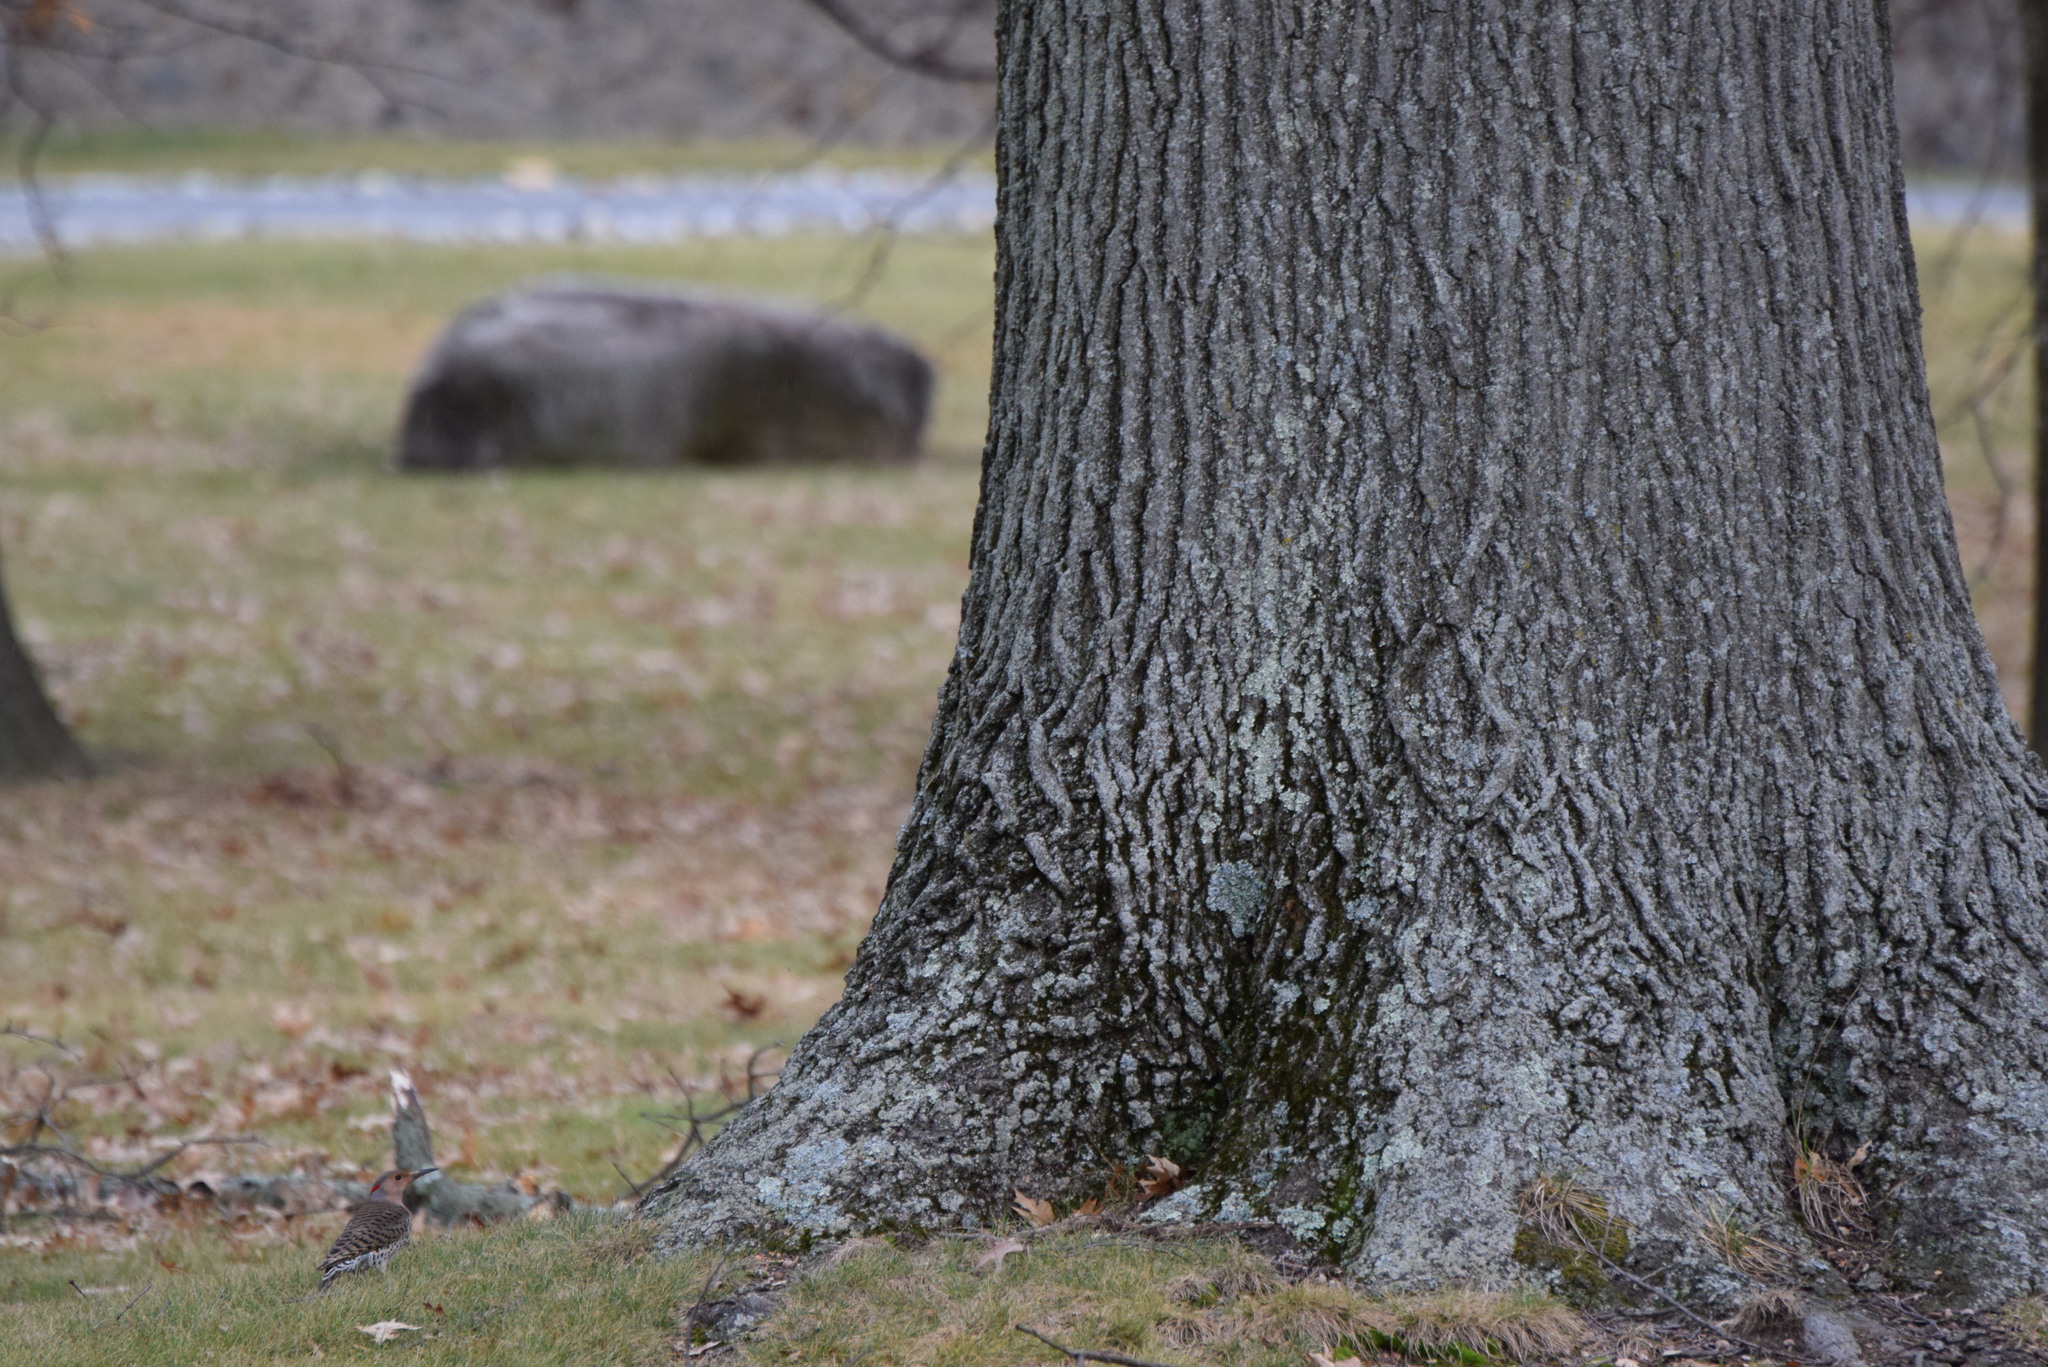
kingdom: Animalia
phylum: Chordata
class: Aves
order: Piciformes
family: Picidae
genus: Colaptes
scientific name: Colaptes auratus
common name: Northern flicker
